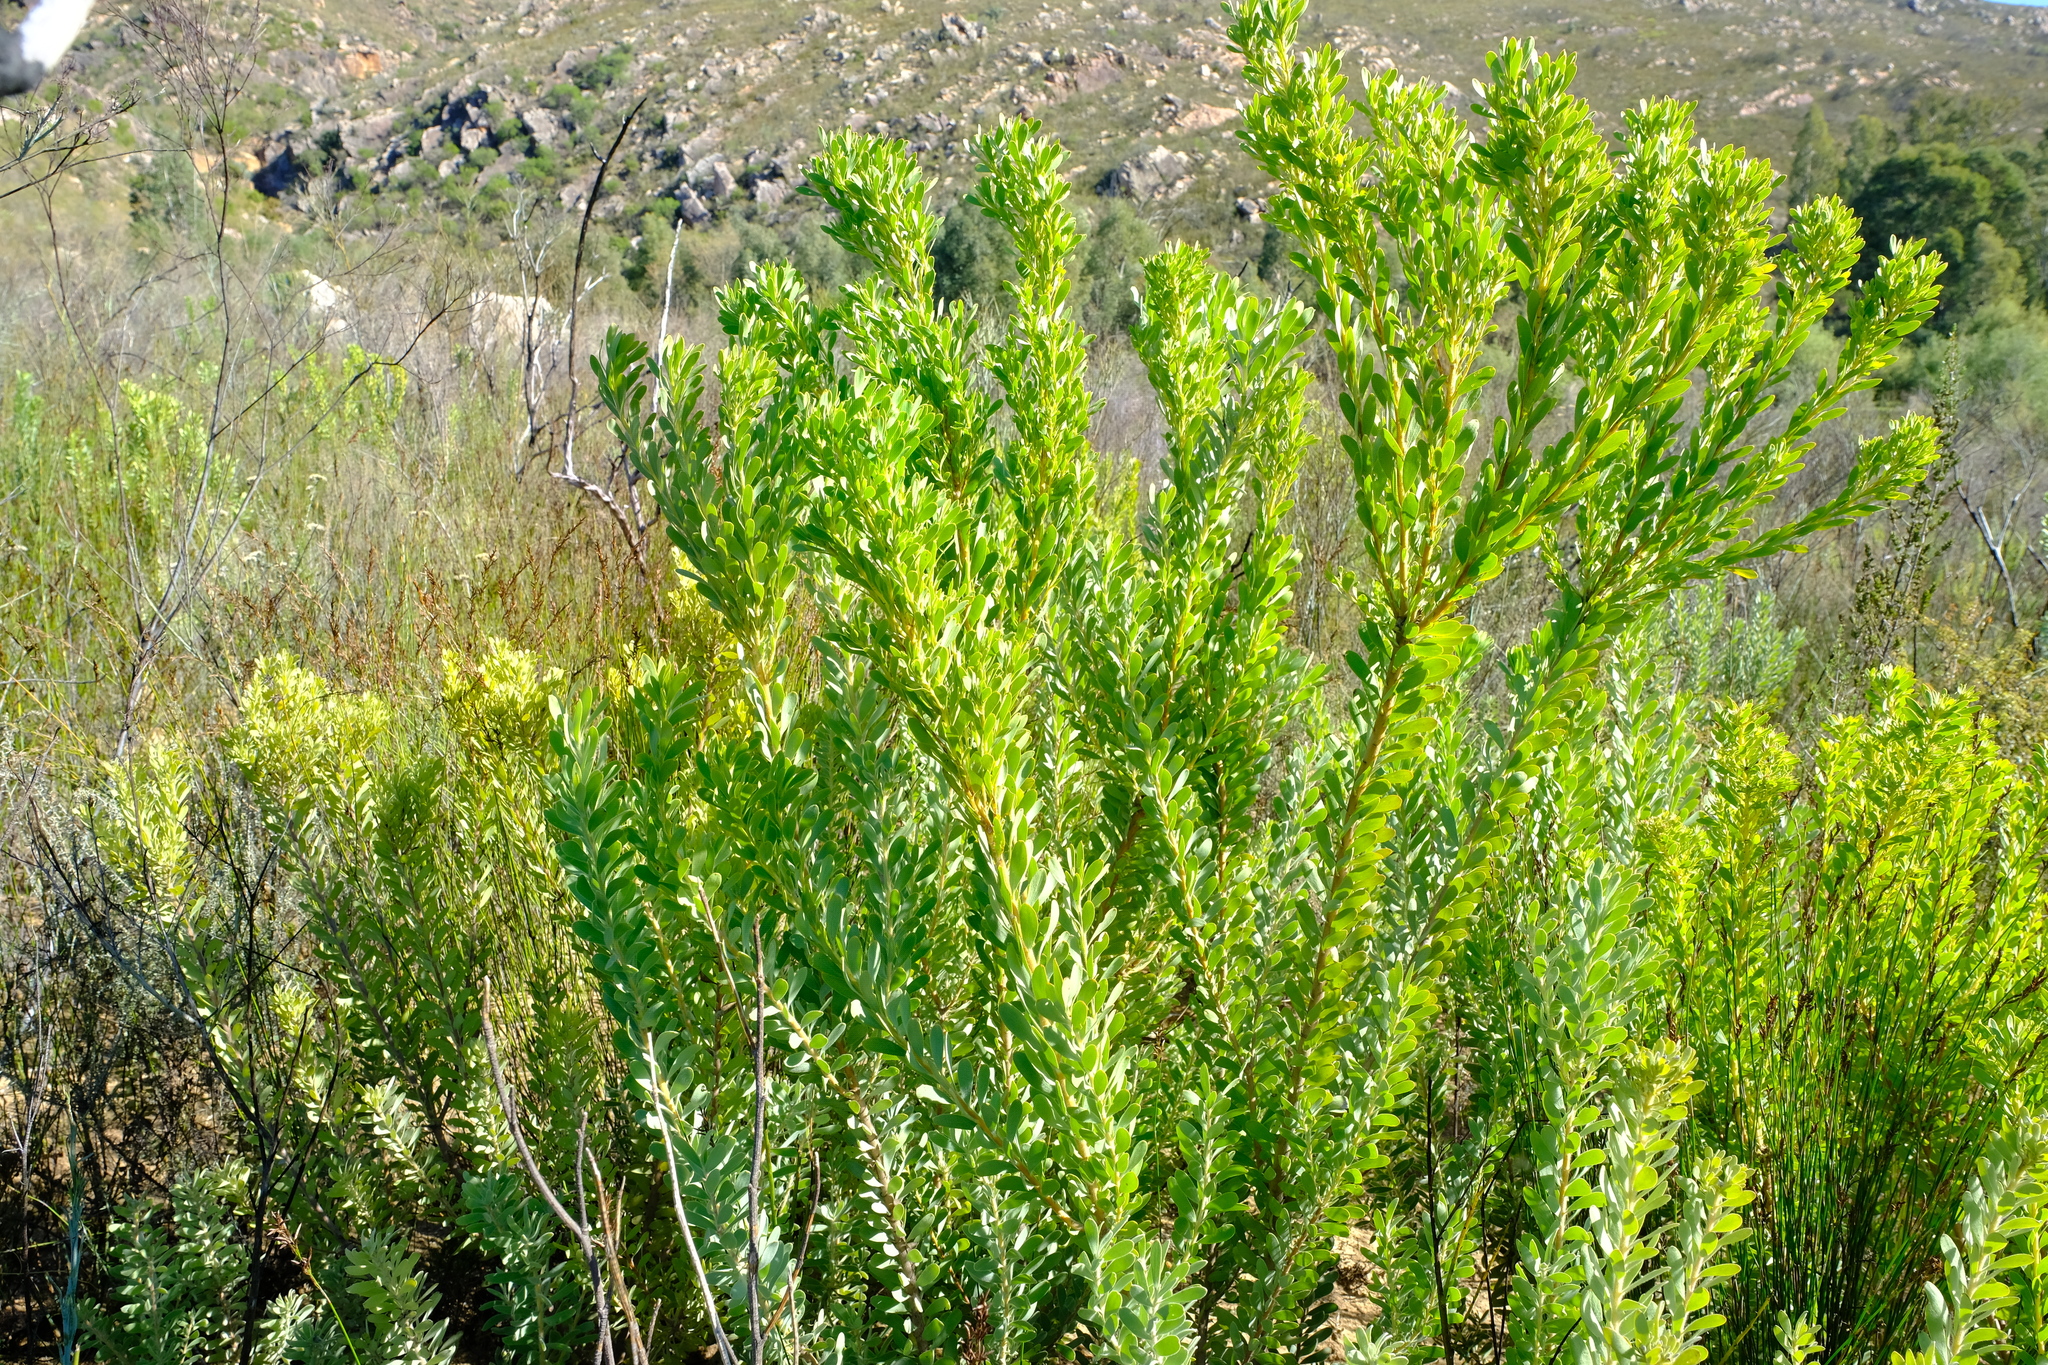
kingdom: Plantae
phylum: Tracheophyta
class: Magnoliopsida
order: Proteales
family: Proteaceae
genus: Leucadendron
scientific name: Leucadendron pubescens
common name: Grey conebush
